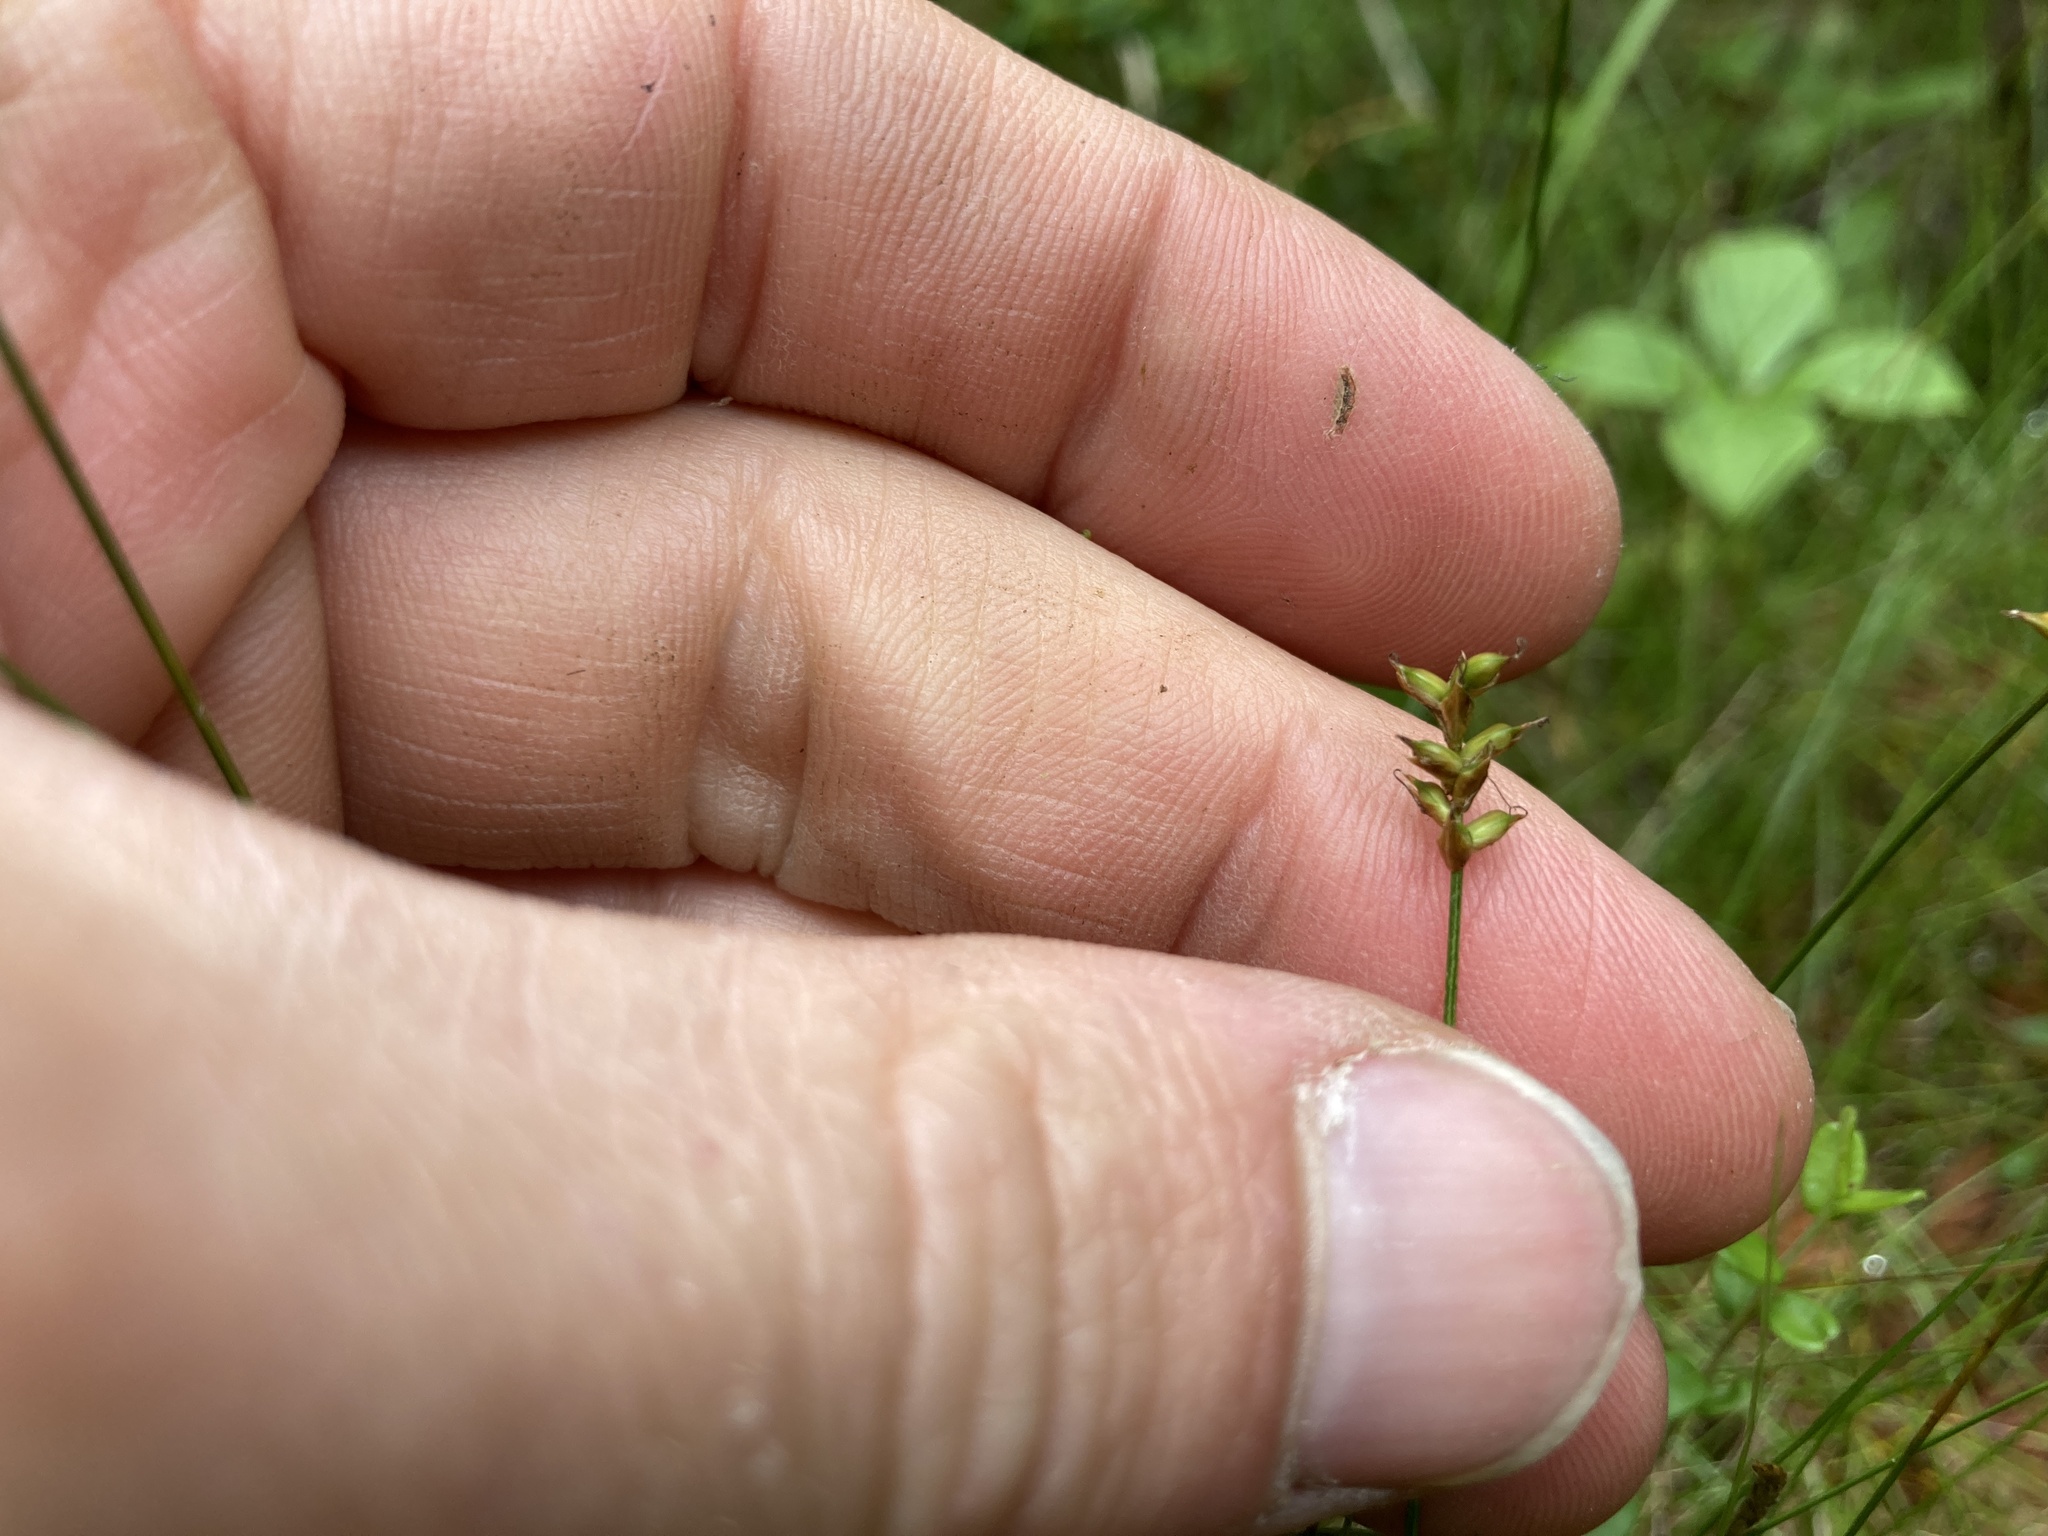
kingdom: Plantae
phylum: Tracheophyta
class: Liliopsida
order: Poales
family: Cyperaceae
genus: Carex
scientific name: Carex alascana
